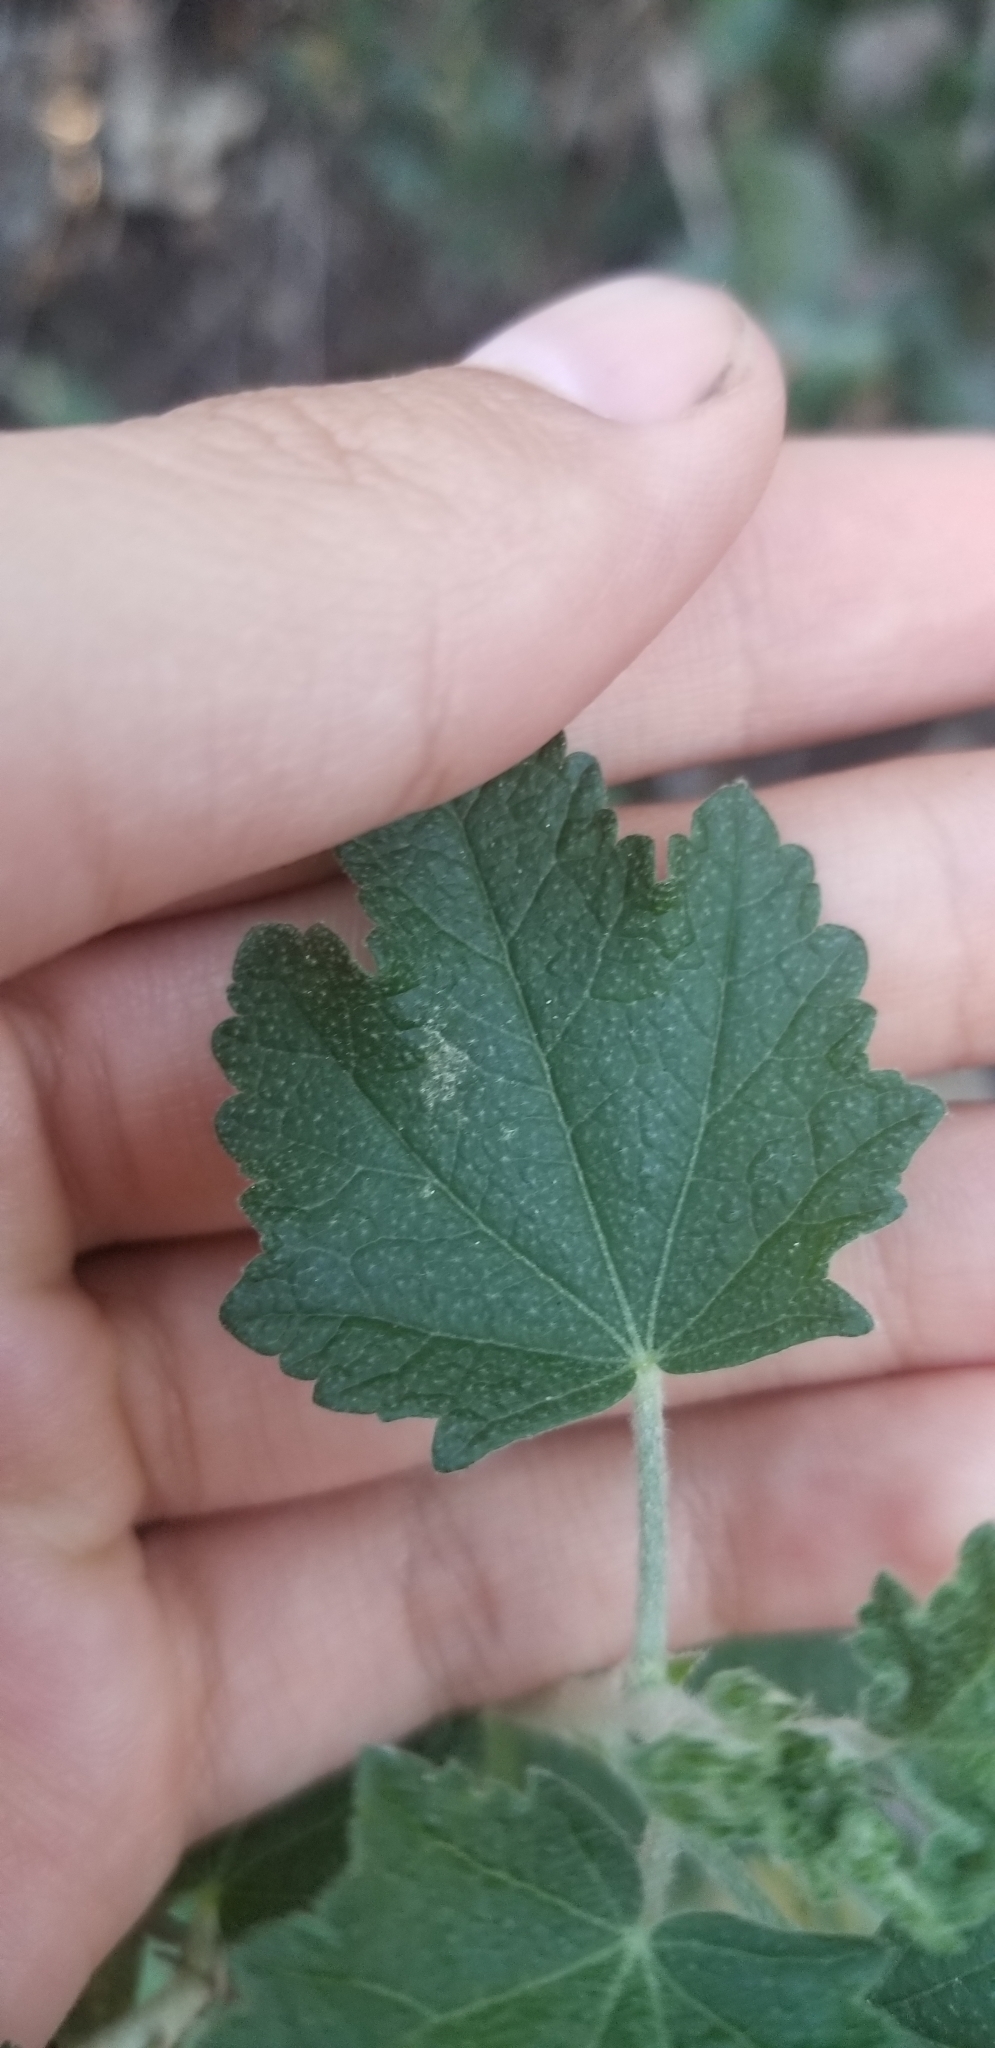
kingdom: Plantae
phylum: Tracheophyta
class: Magnoliopsida
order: Malvales
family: Malvaceae
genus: Malacothamnus
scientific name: Malacothamnus fasciculatus
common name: Sant cruz island bush-mallow
